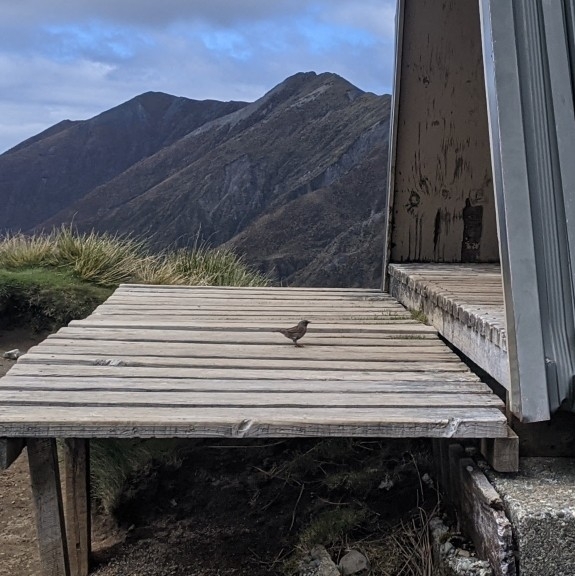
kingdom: Animalia
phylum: Chordata
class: Aves
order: Passeriformes
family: Prunellidae
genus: Prunella
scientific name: Prunella modularis
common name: Dunnock
